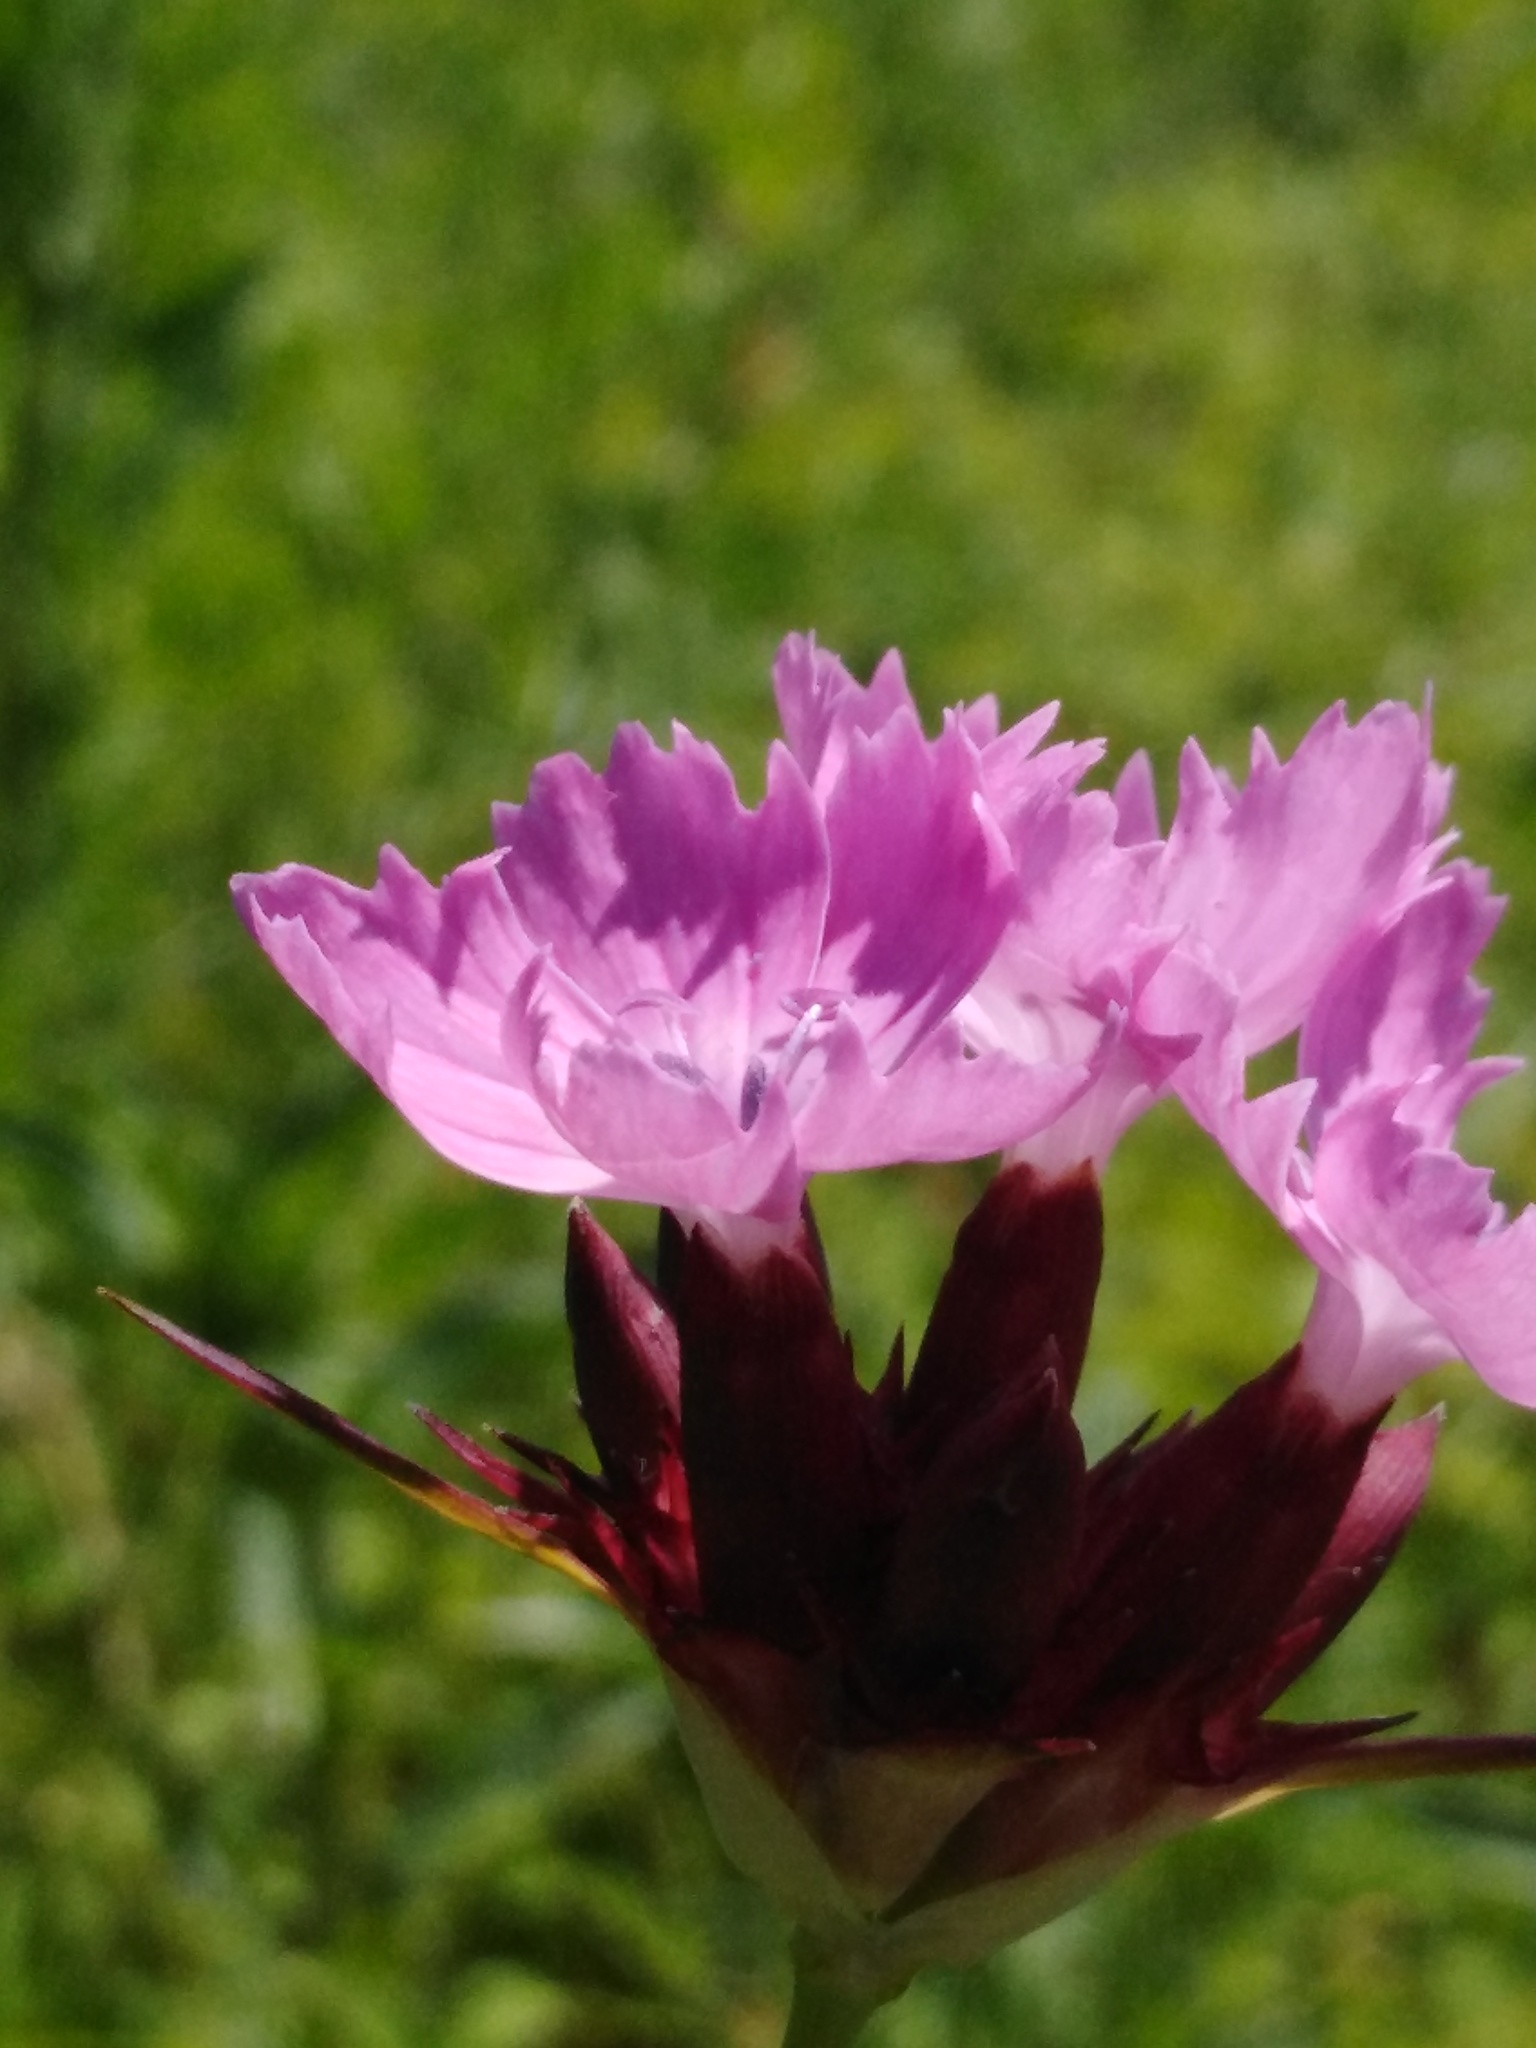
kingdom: Plantae
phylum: Tracheophyta
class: Magnoliopsida
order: Caryophyllales
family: Caryophyllaceae
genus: Dianthus
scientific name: Dianthus capitatus
